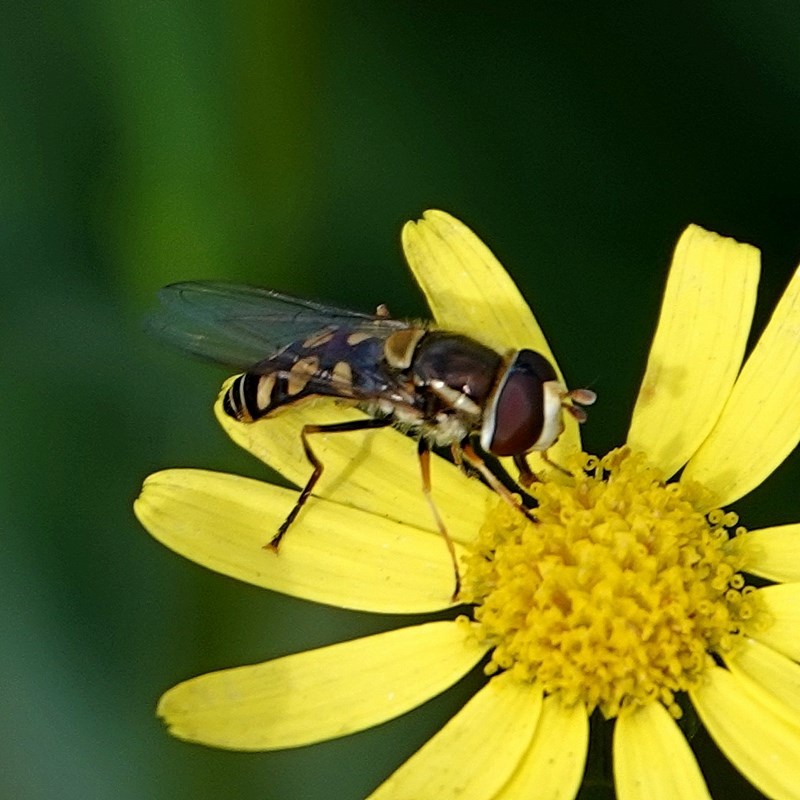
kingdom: Animalia
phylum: Arthropoda
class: Insecta
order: Diptera
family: Syrphidae
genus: Simosyrphus
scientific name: Simosyrphus grandicornis
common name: Hoverfly
